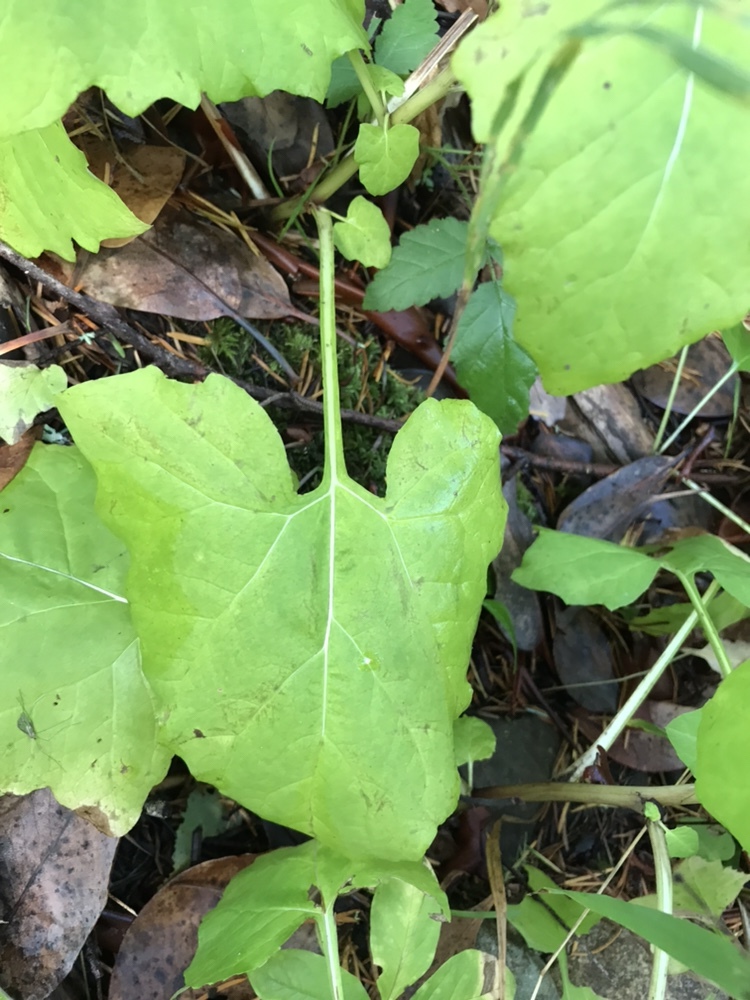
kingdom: Plantae
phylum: Tracheophyta
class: Magnoliopsida
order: Asterales
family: Asteraceae
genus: Adenocaulon
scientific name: Adenocaulon bicolor
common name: Trailplant
